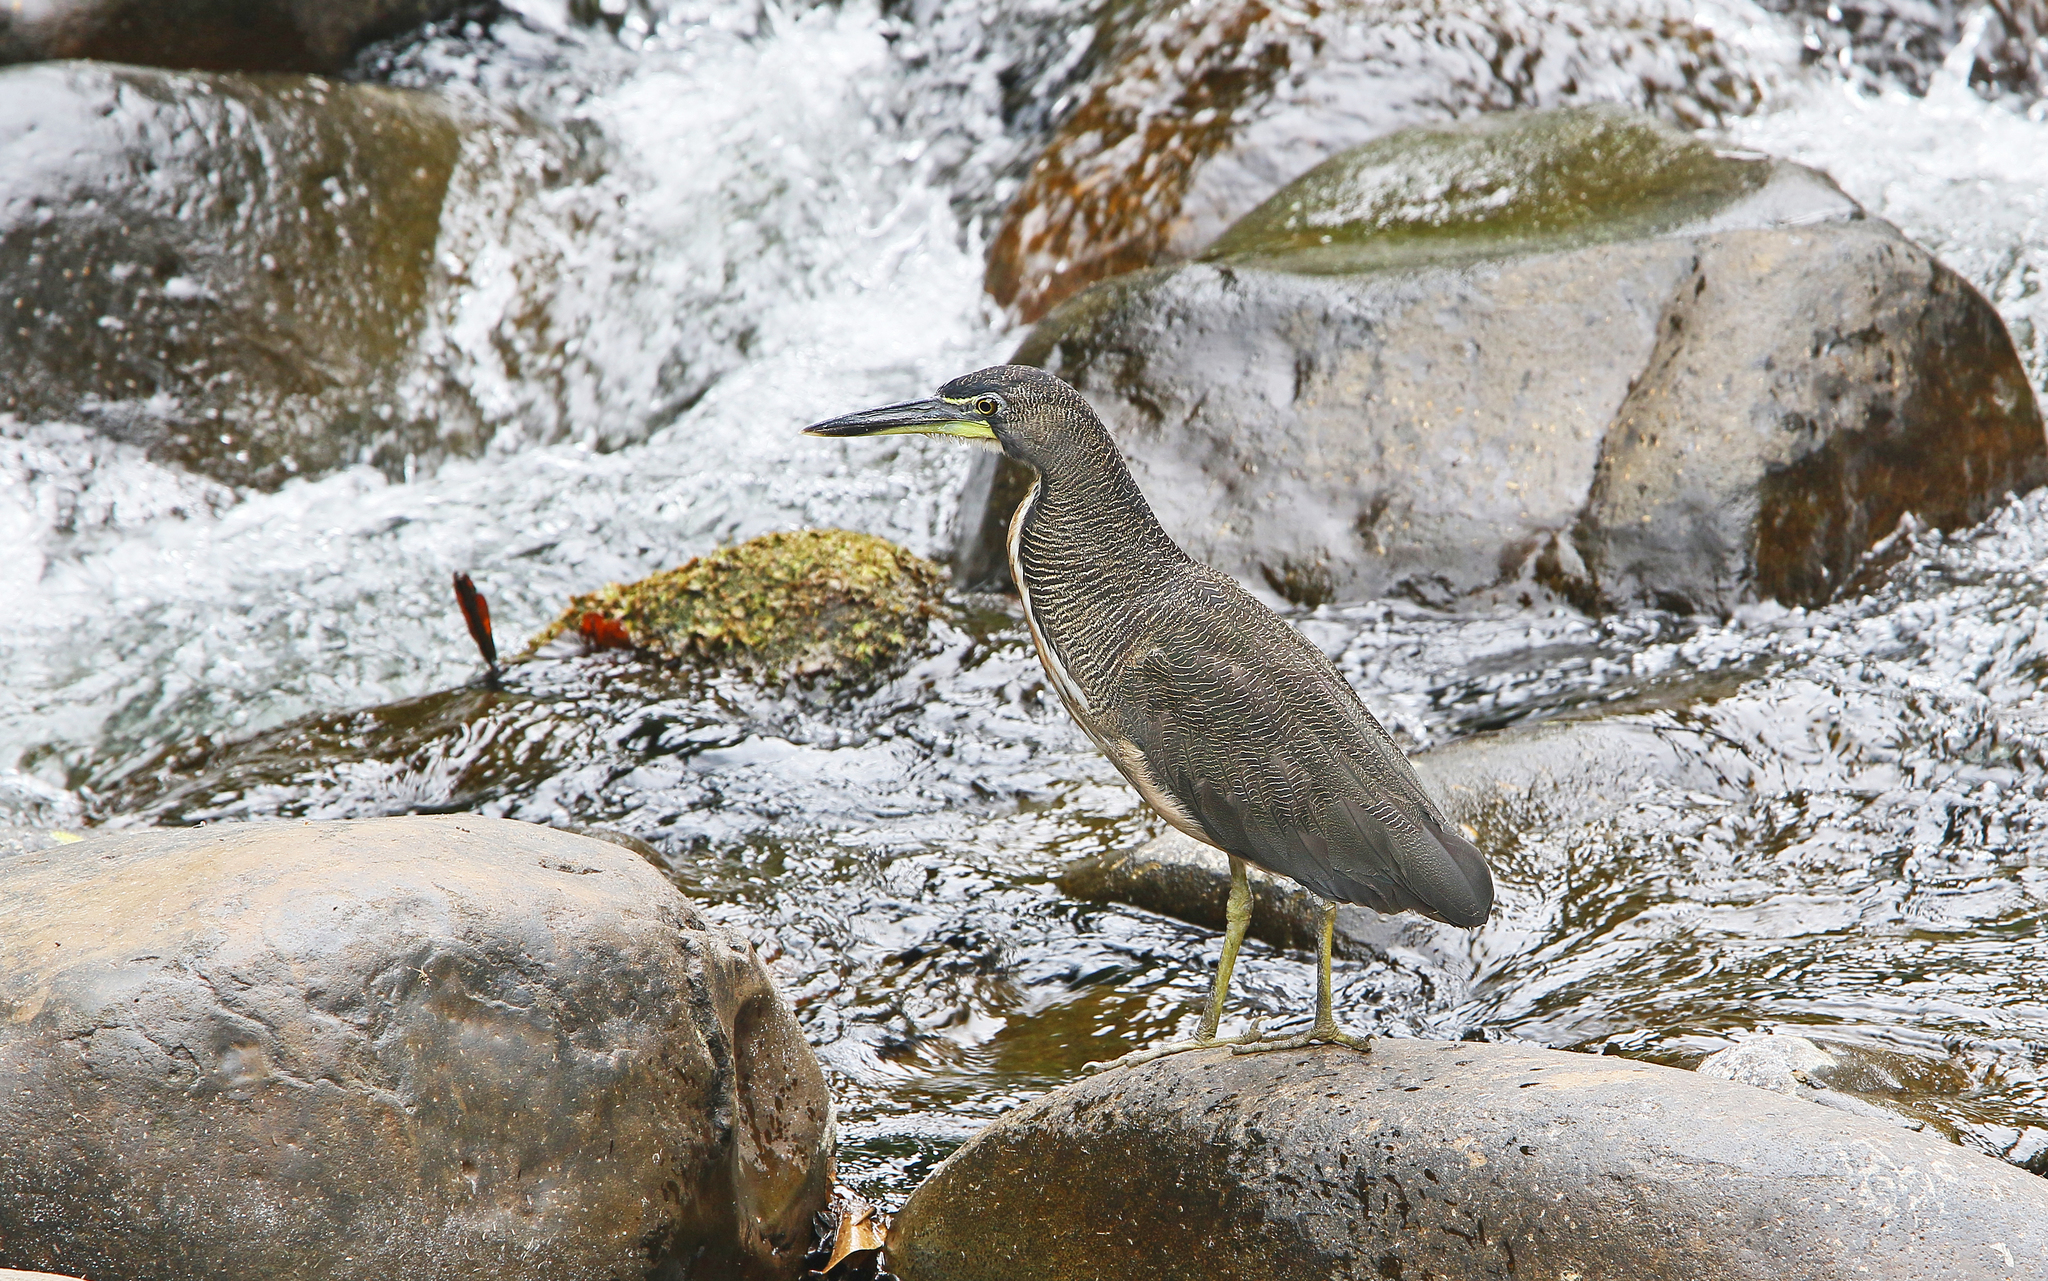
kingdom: Animalia
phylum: Chordata
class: Aves
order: Pelecaniformes
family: Ardeidae
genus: Tigrisoma
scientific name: Tigrisoma fasciatum
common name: Fasciated tiger-heron
